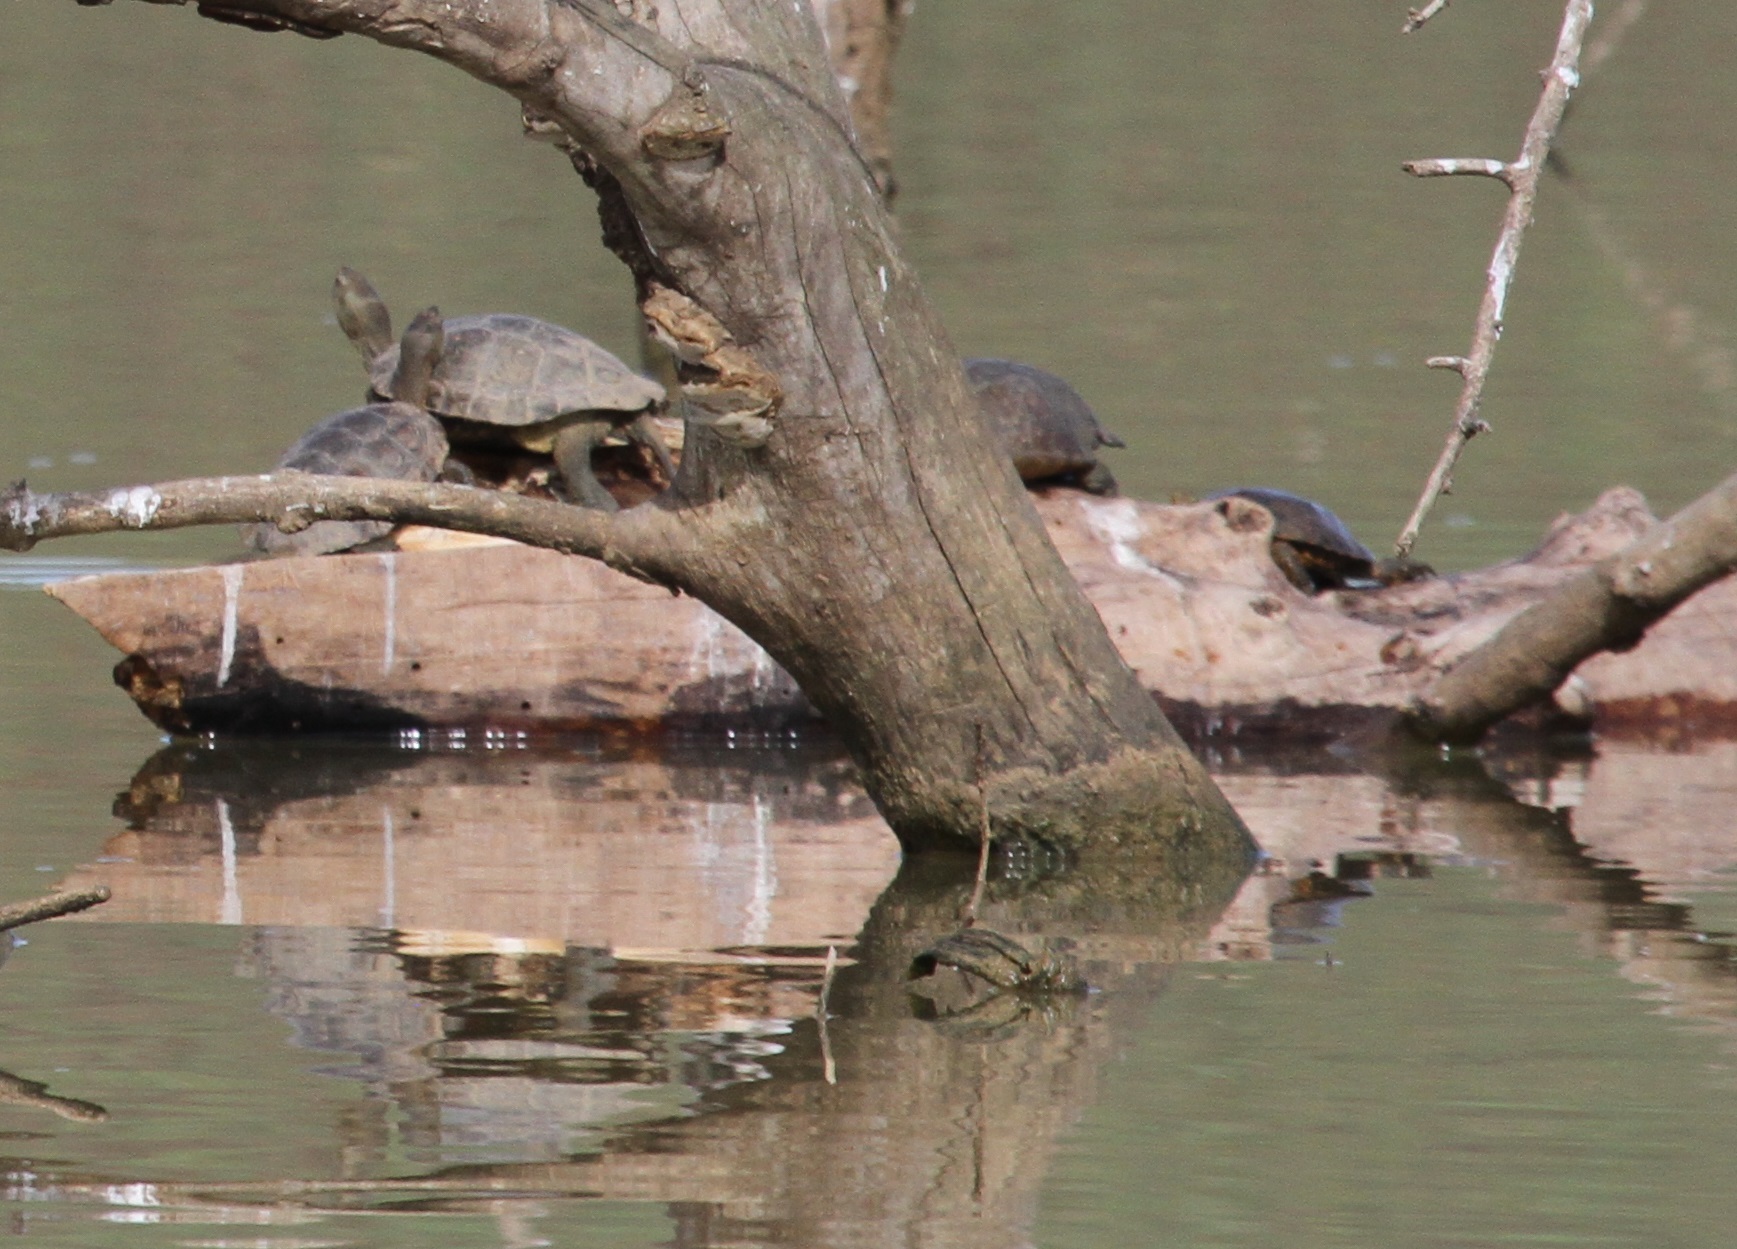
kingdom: Animalia
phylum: Chordata
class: Testudines
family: Geoemydidae
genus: Mauremys
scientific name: Mauremys leprosa
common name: Mediterranean pond turtle
